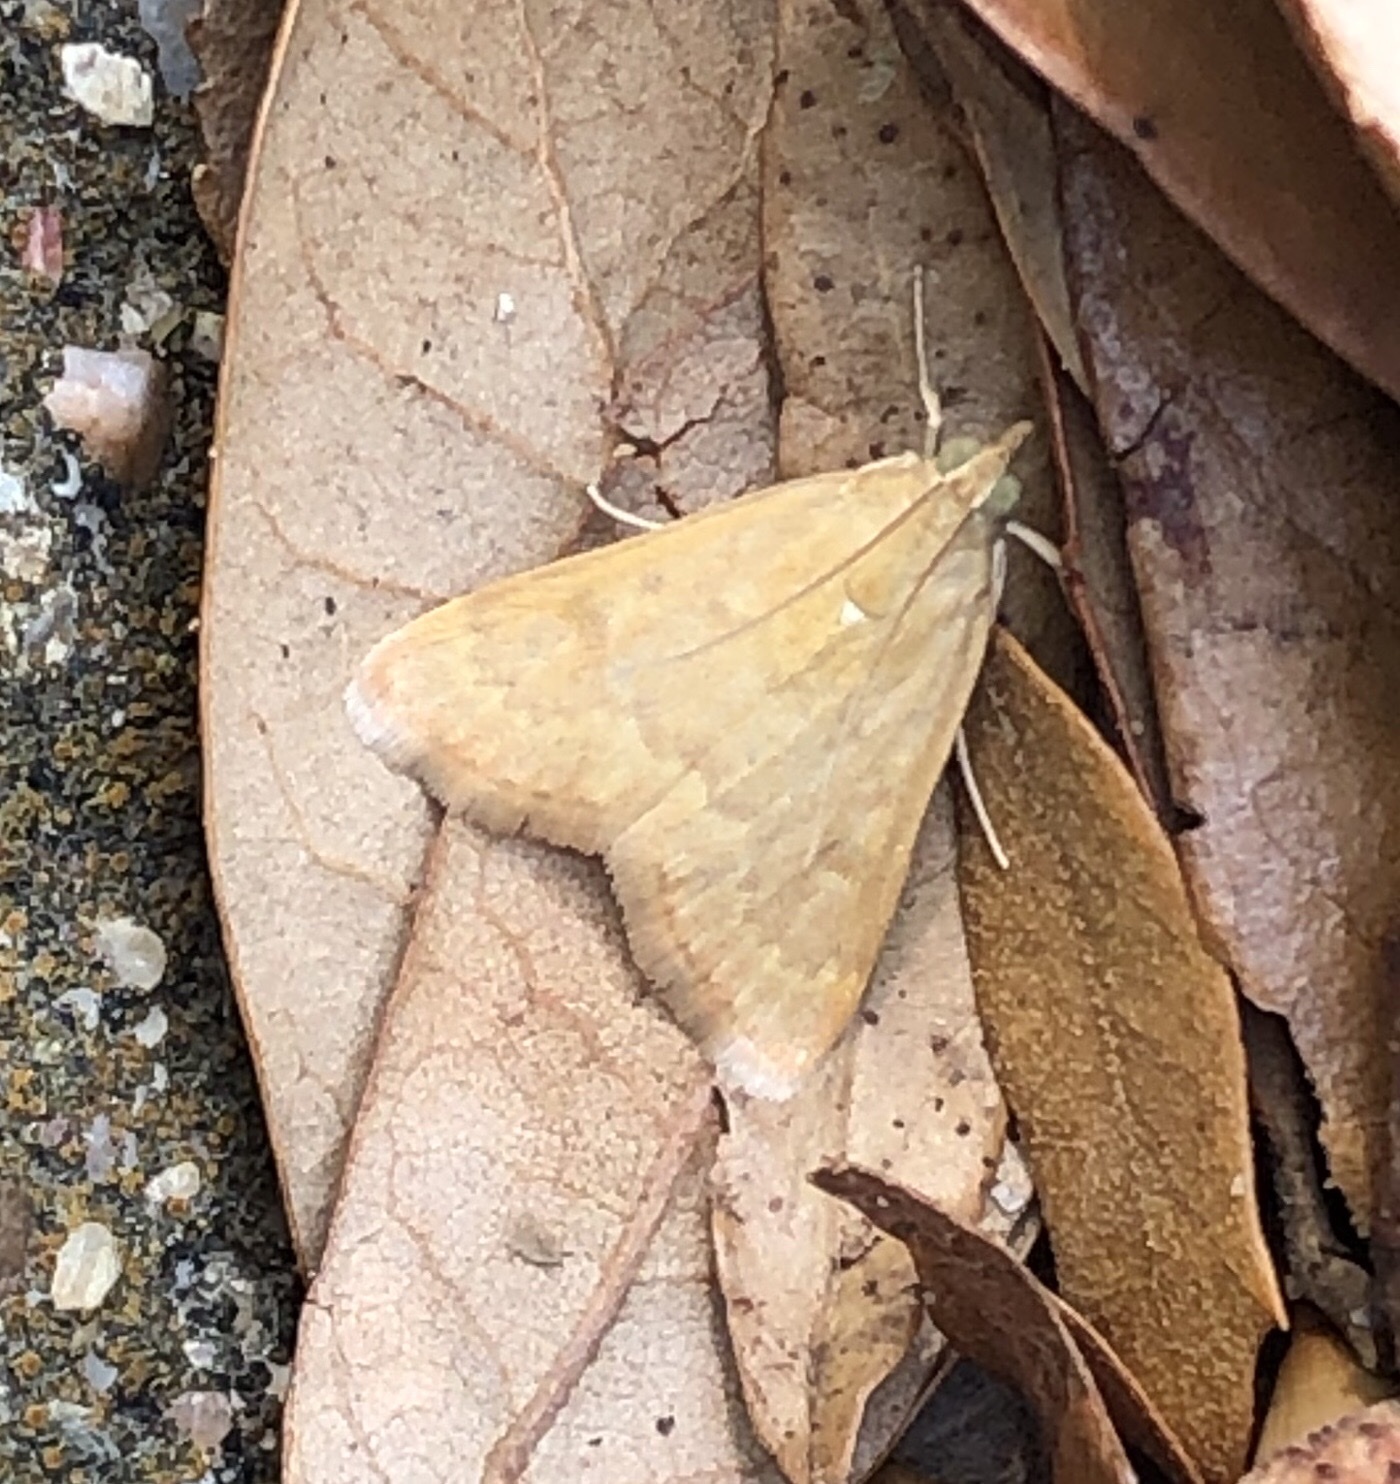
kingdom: Animalia
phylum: Arthropoda
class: Insecta
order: Lepidoptera
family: Crambidae
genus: Achyra
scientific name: Achyra rantalis
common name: Garden webworm
